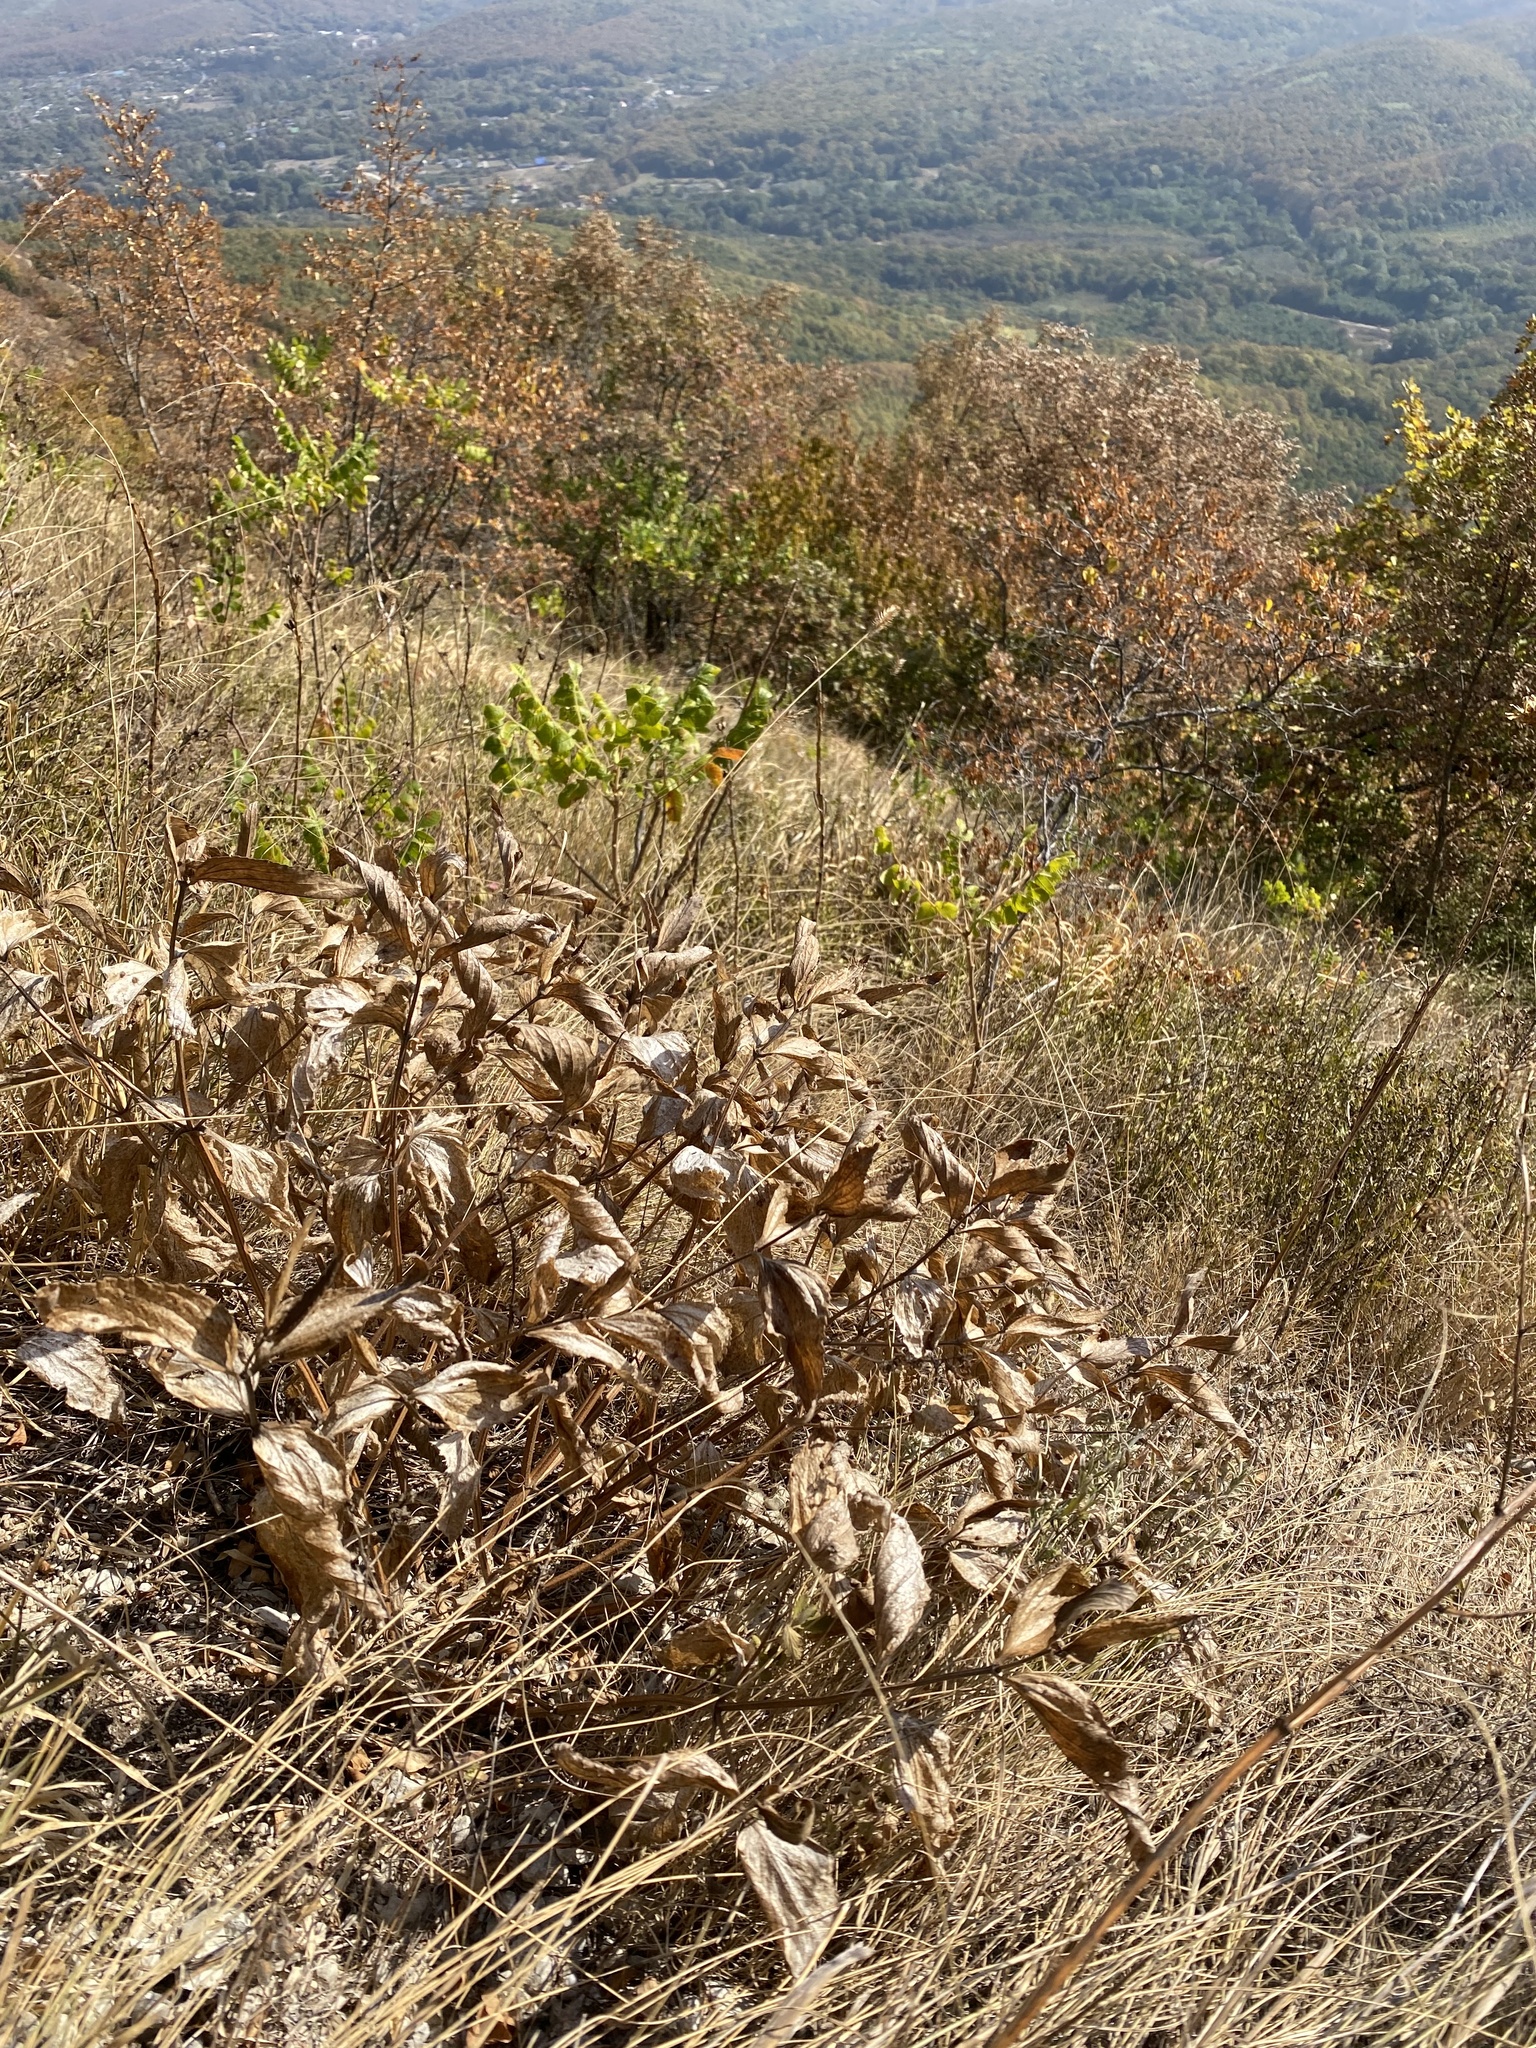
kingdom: Plantae
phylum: Tracheophyta
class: Magnoliopsida
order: Lamiales
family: Lamiaceae
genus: Phlomis
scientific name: Phlomis herba-venti
